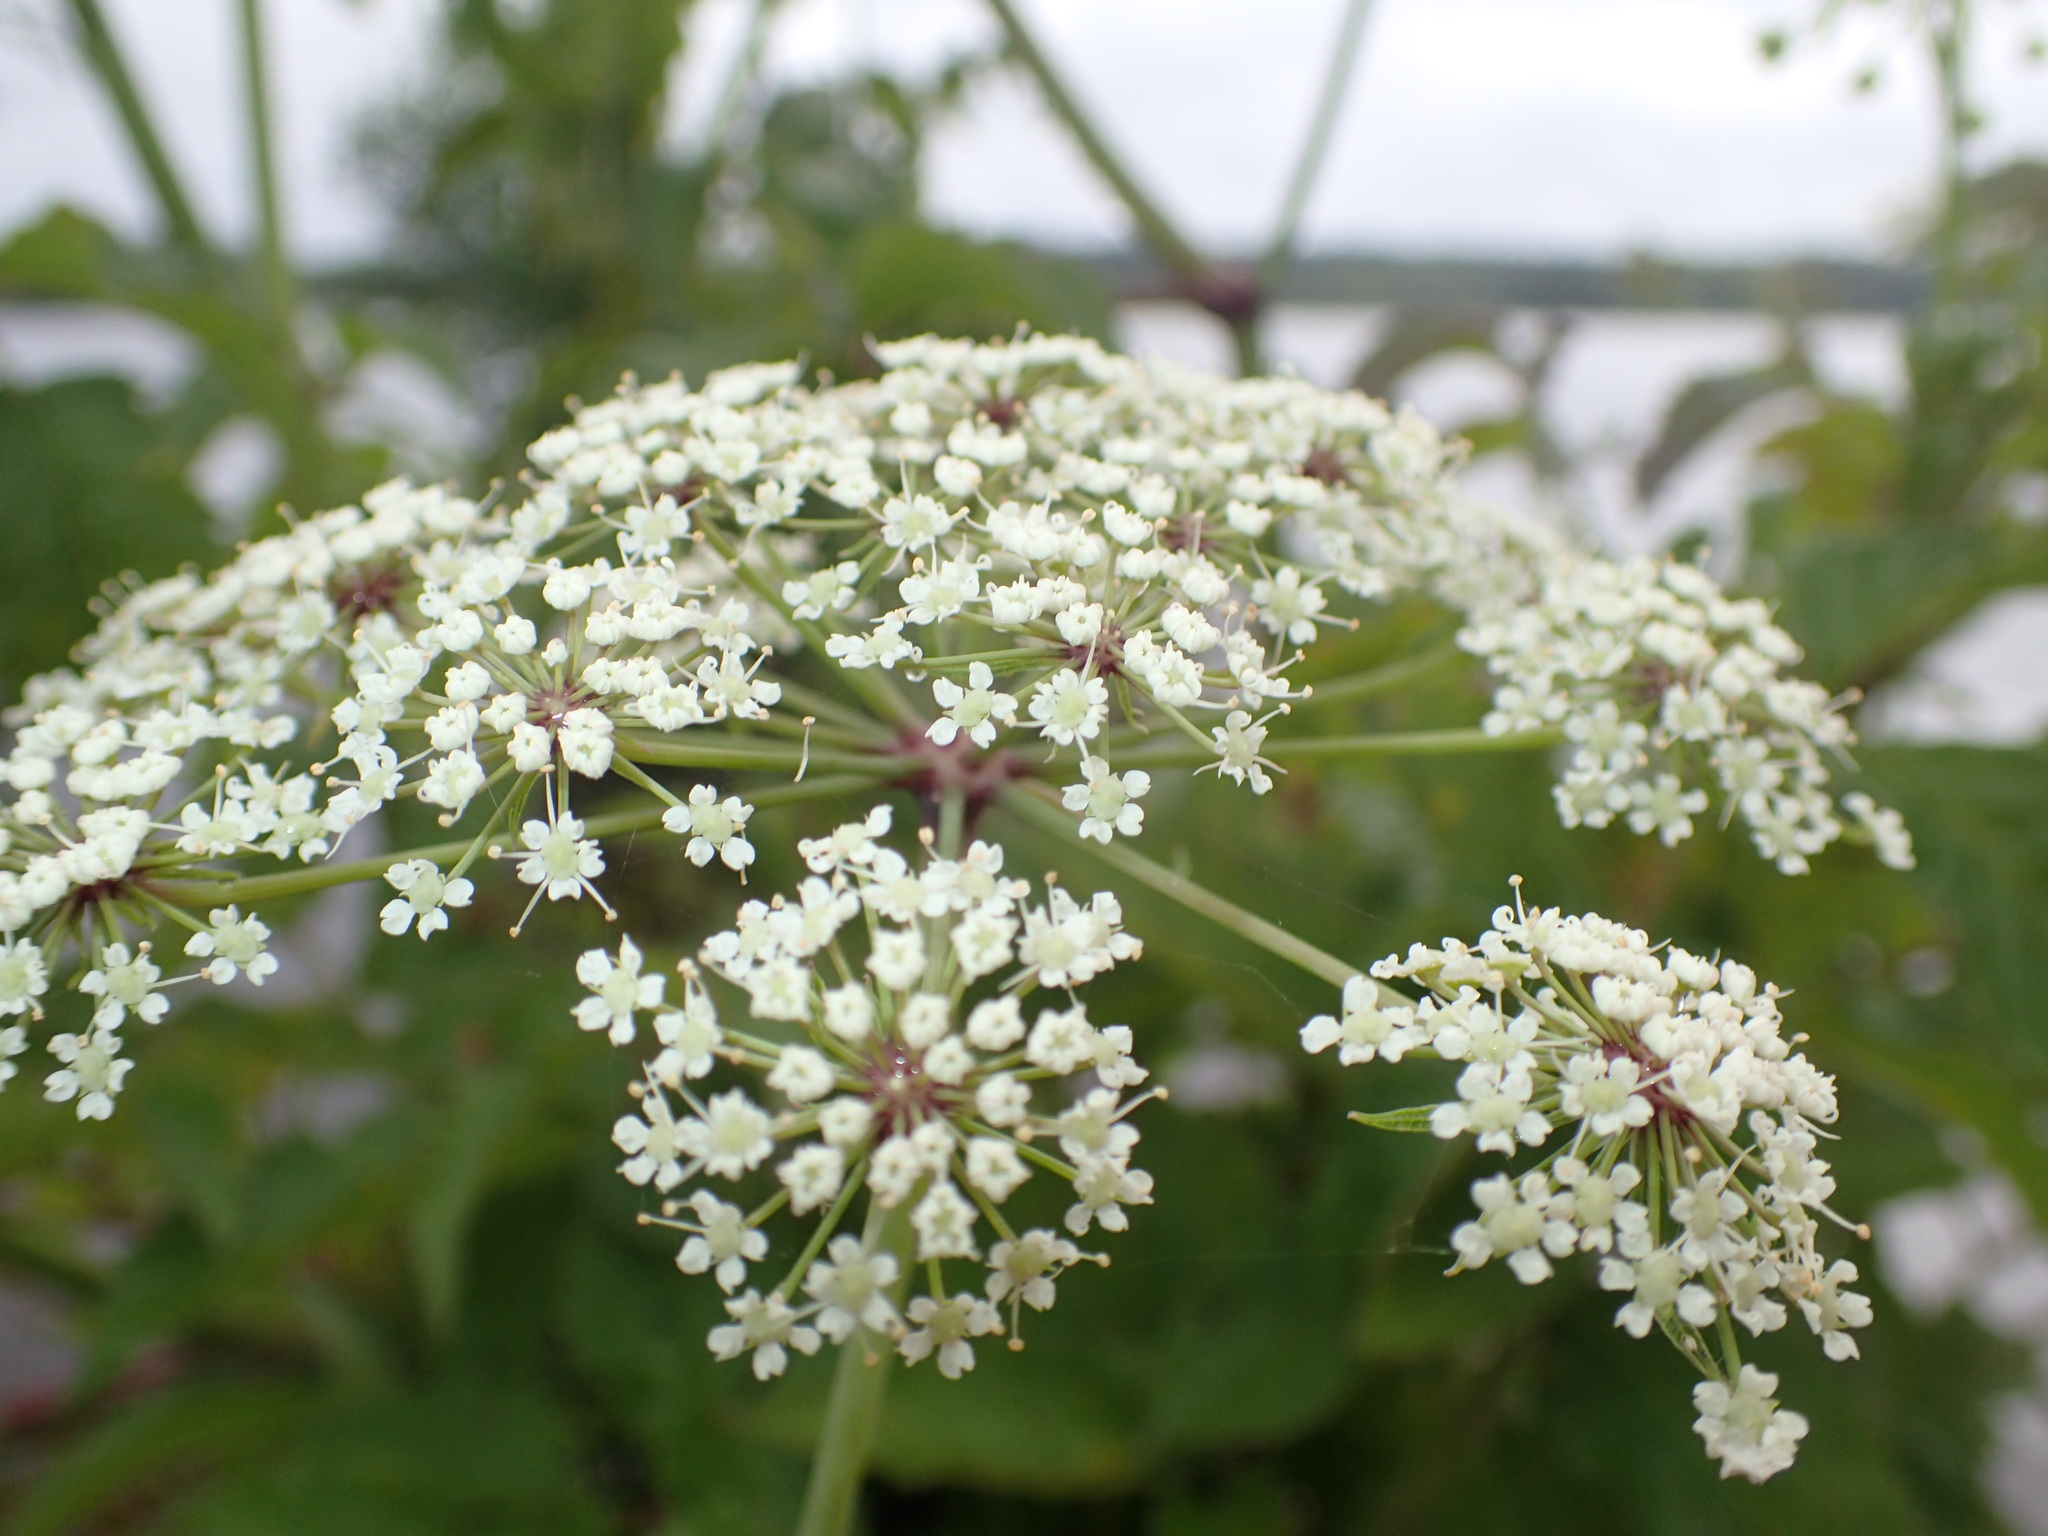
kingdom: Plantae
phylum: Tracheophyta
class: Magnoliopsida
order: Apiales
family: Apiaceae
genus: Cicuta
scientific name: Cicuta maculata
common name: Spotted cowbane
